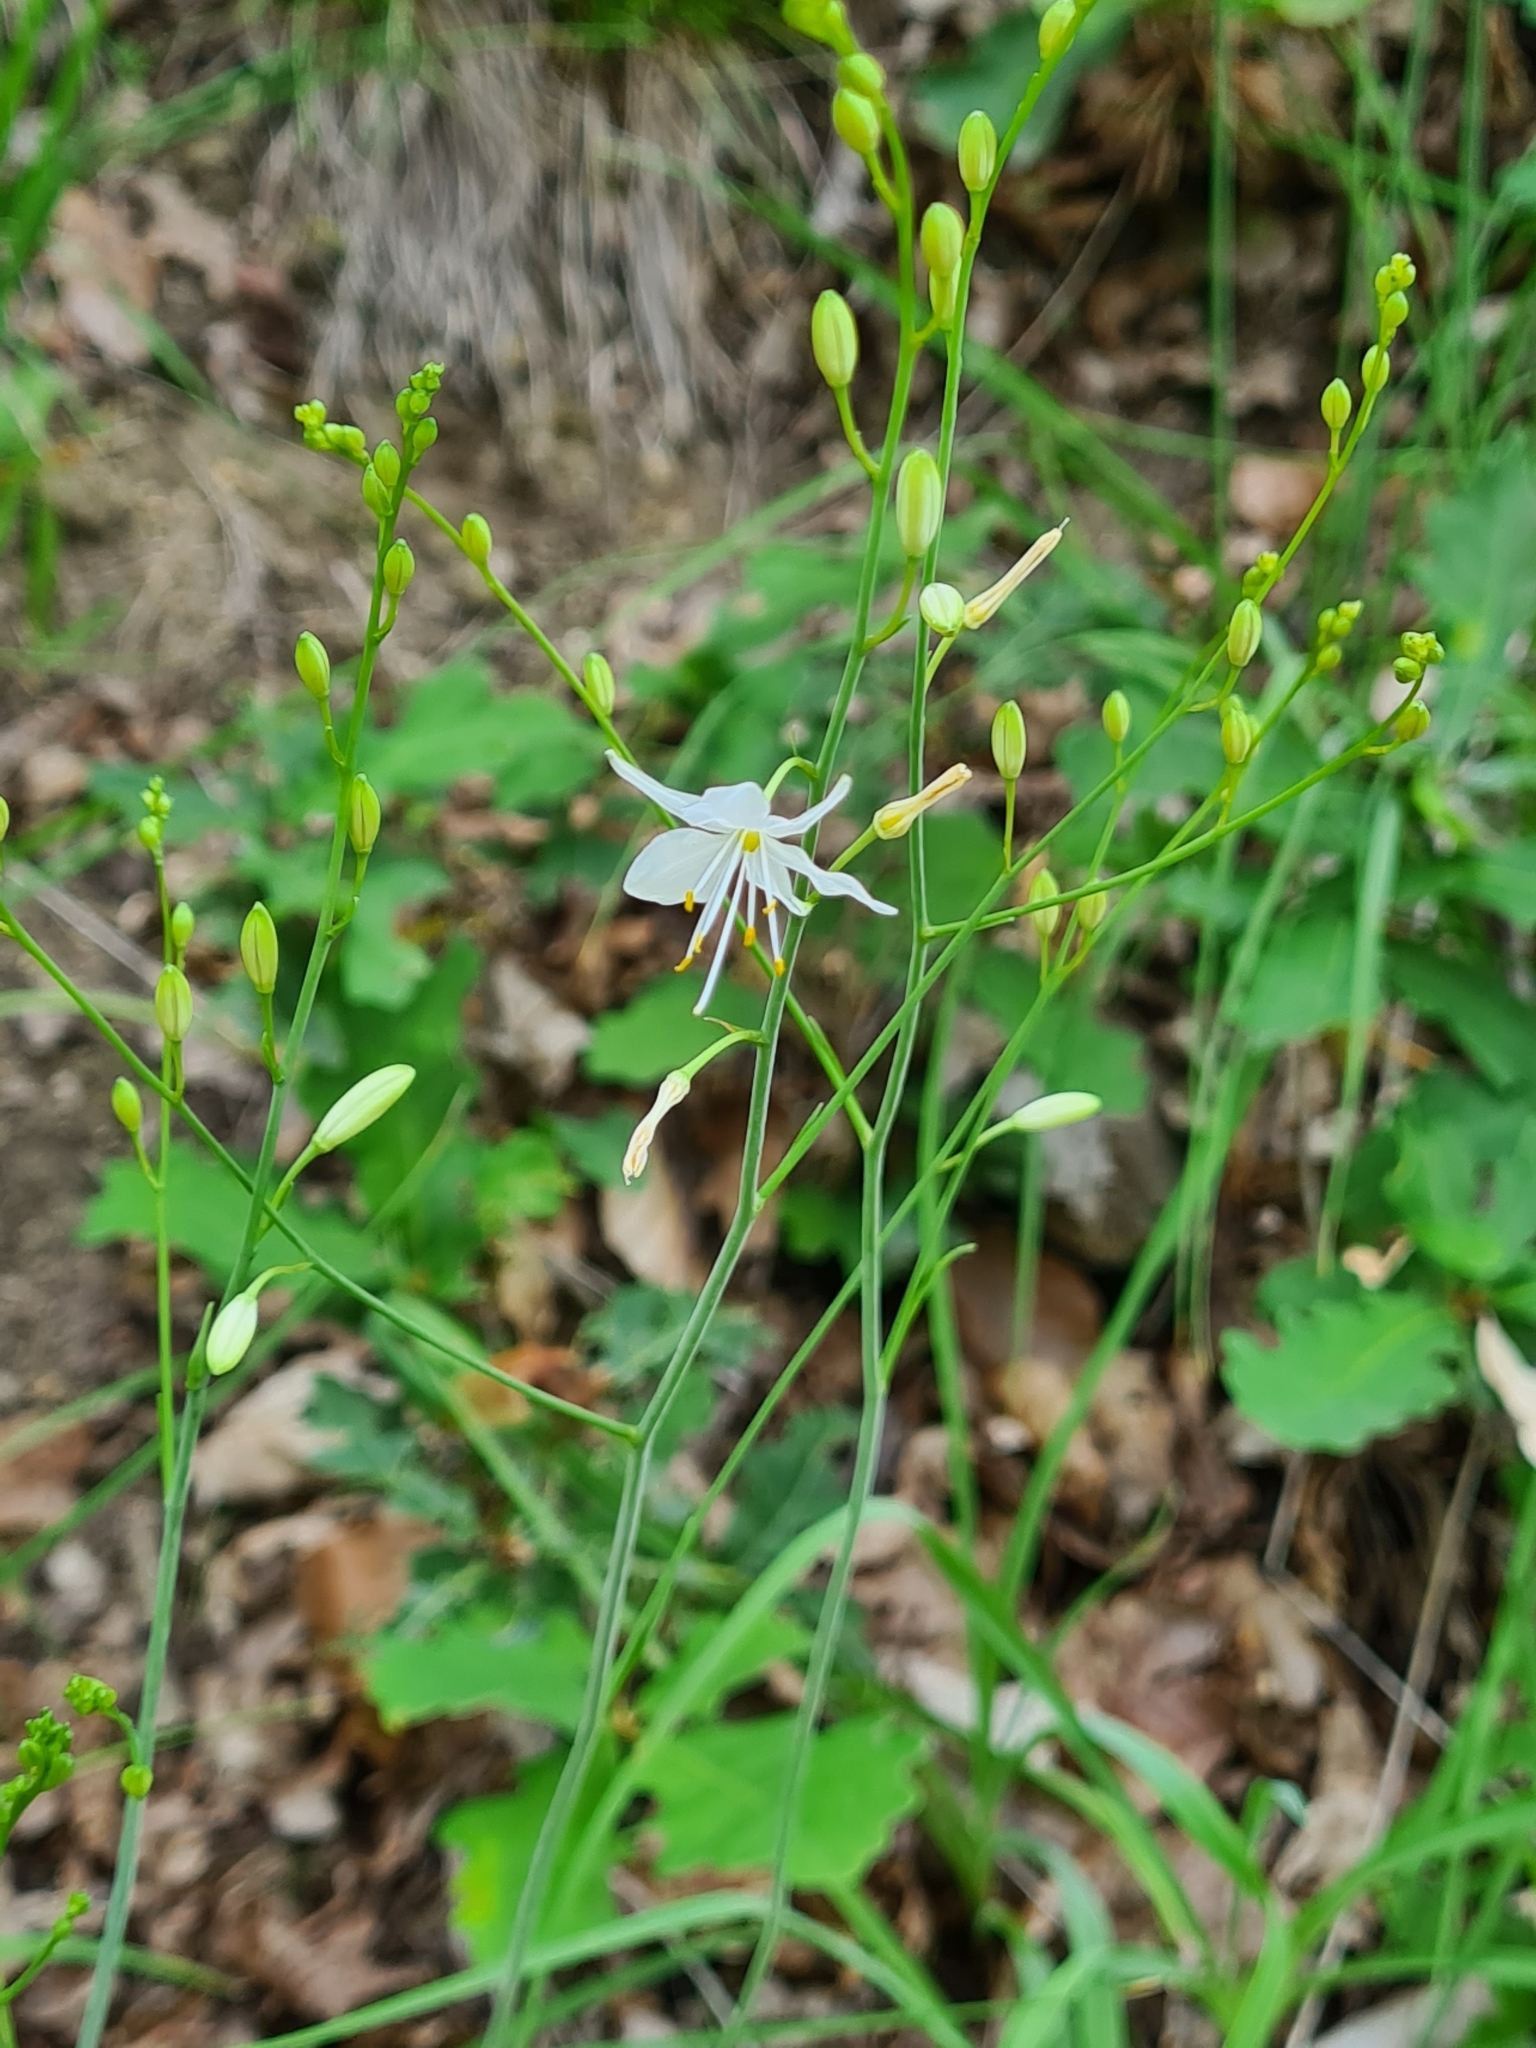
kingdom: Plantae
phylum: Tracheophyta
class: Liliopsida
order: Asparagales
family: Asparagaceae
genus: Anthericum
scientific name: Anthericum ramosum
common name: Branched st. bernard's-lily
